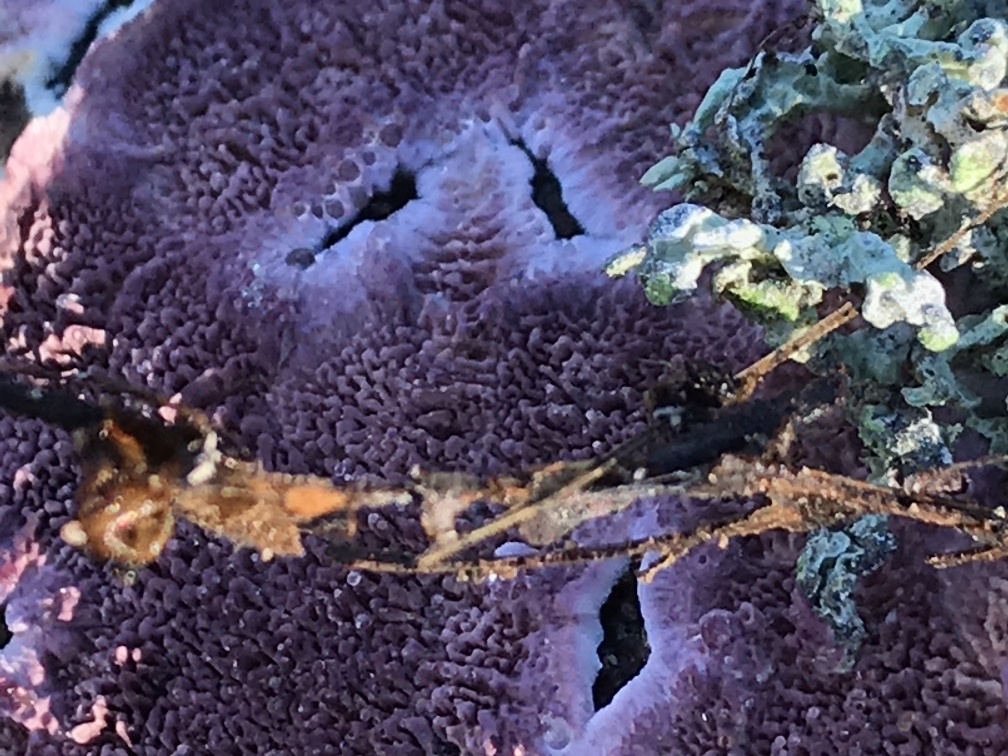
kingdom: Fungi
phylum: Basidiomycota
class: Agaricomycetes
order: Corticiales
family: Punctulariaceae
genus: Punctularia
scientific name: Punctularia atropurpurascens
